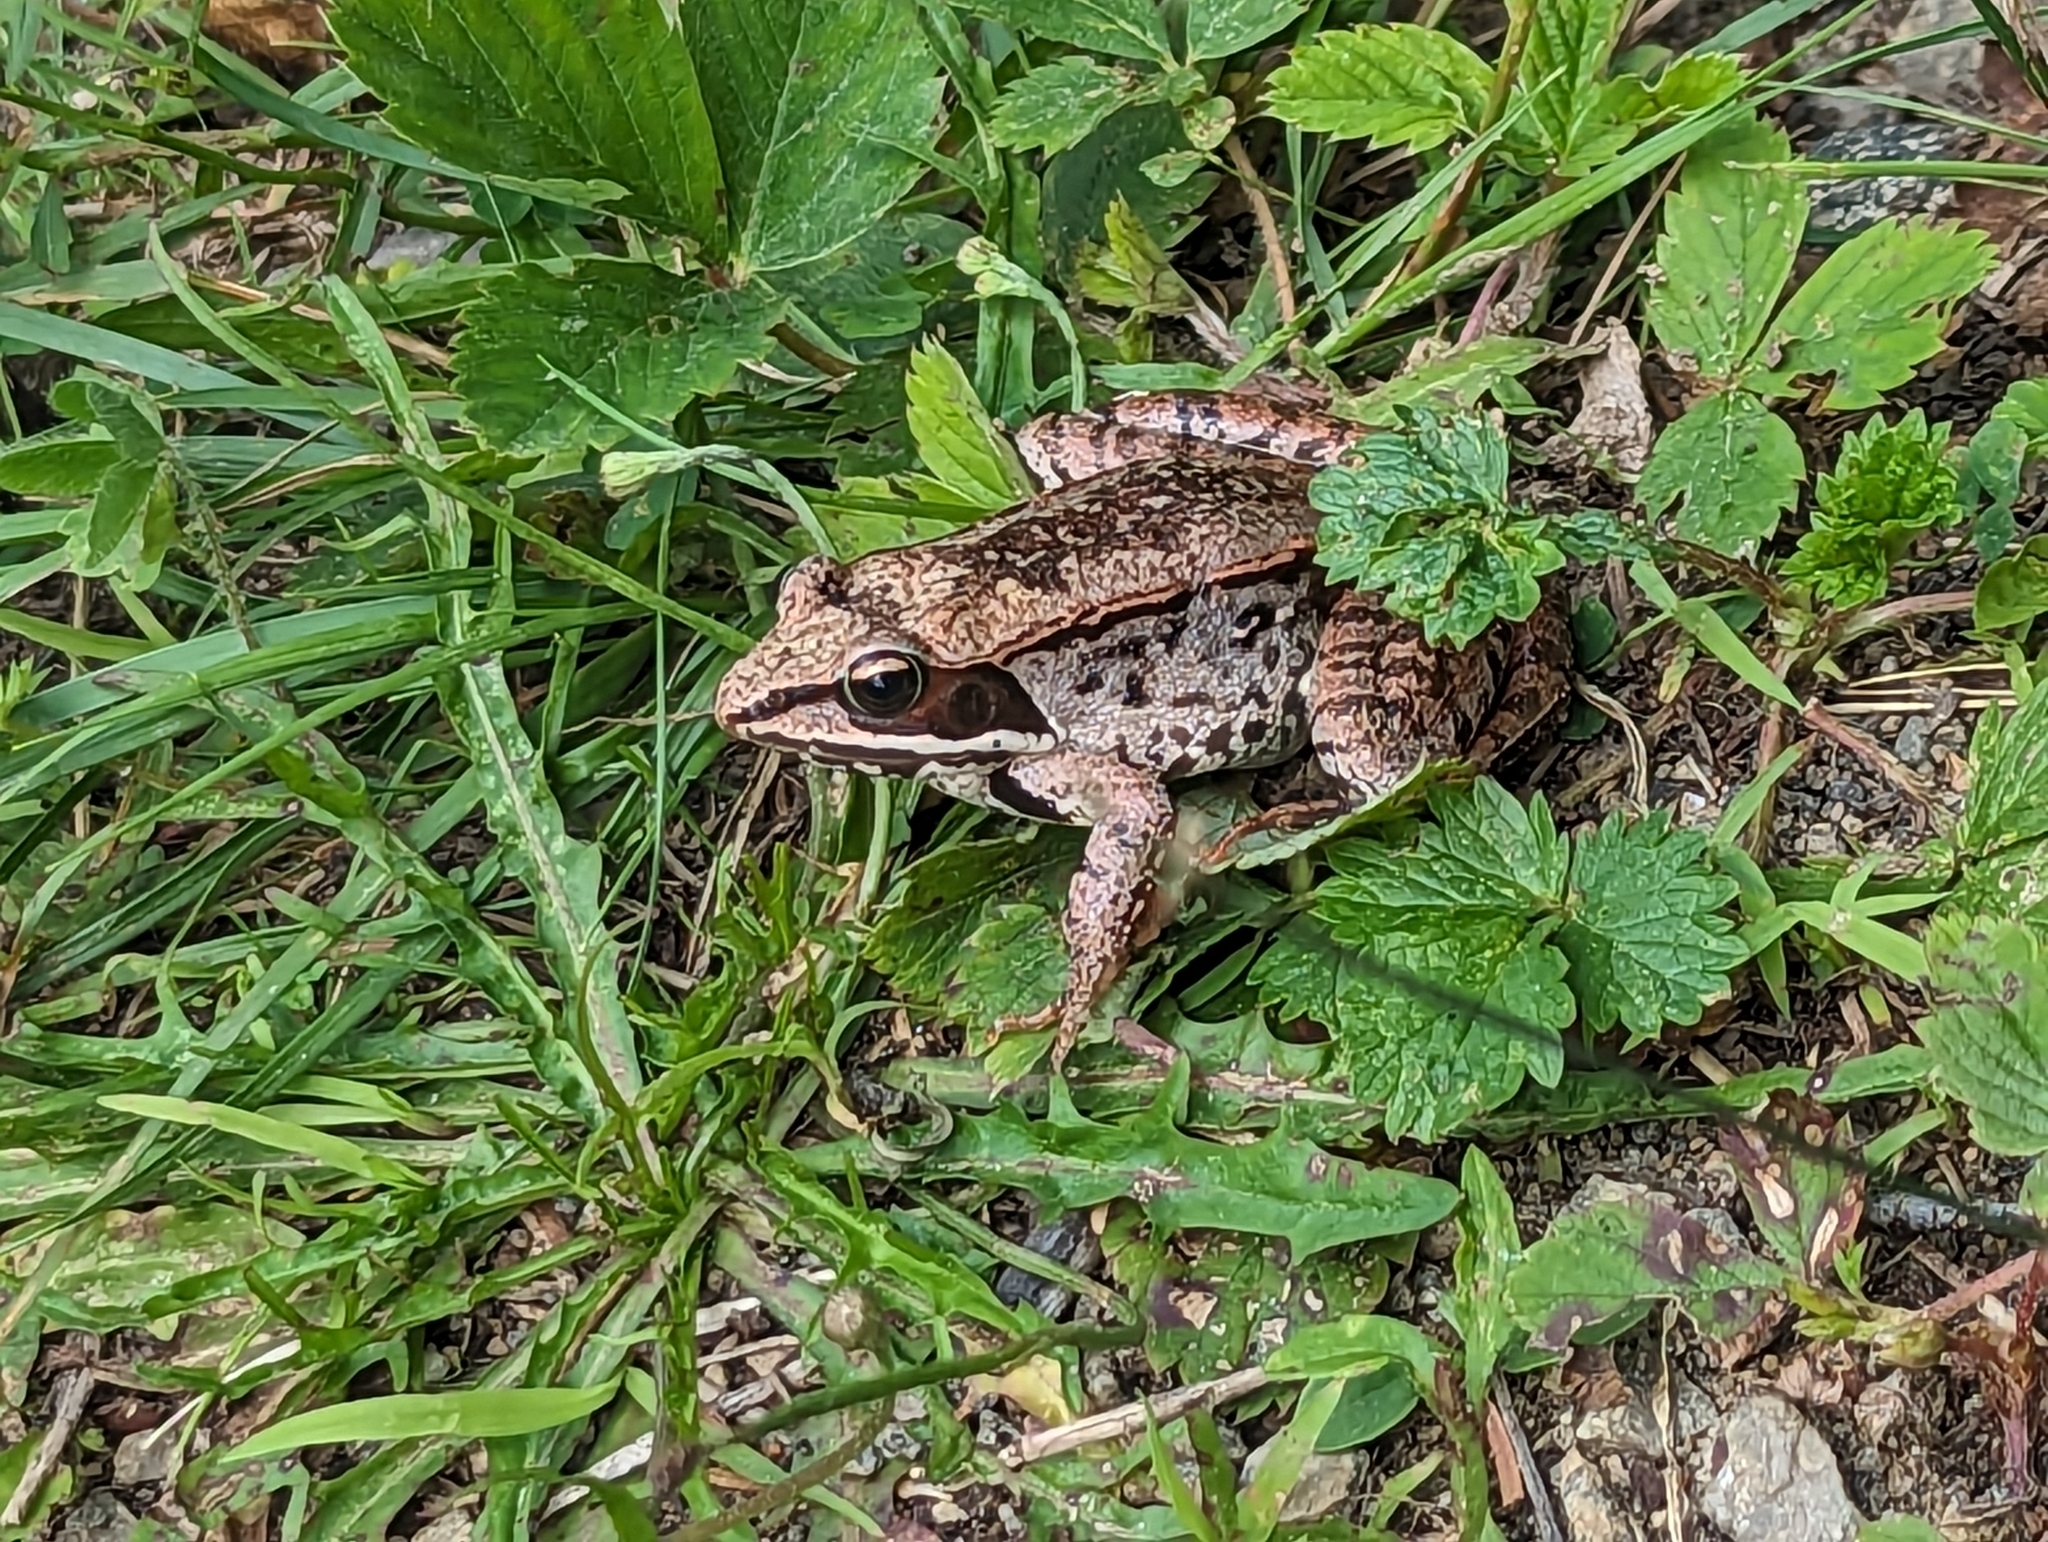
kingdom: Animalia
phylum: Chordata
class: Amphibia
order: Anura
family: Ranidae
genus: Lithobates
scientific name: Lithobates sylvaticus
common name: Wood frog
